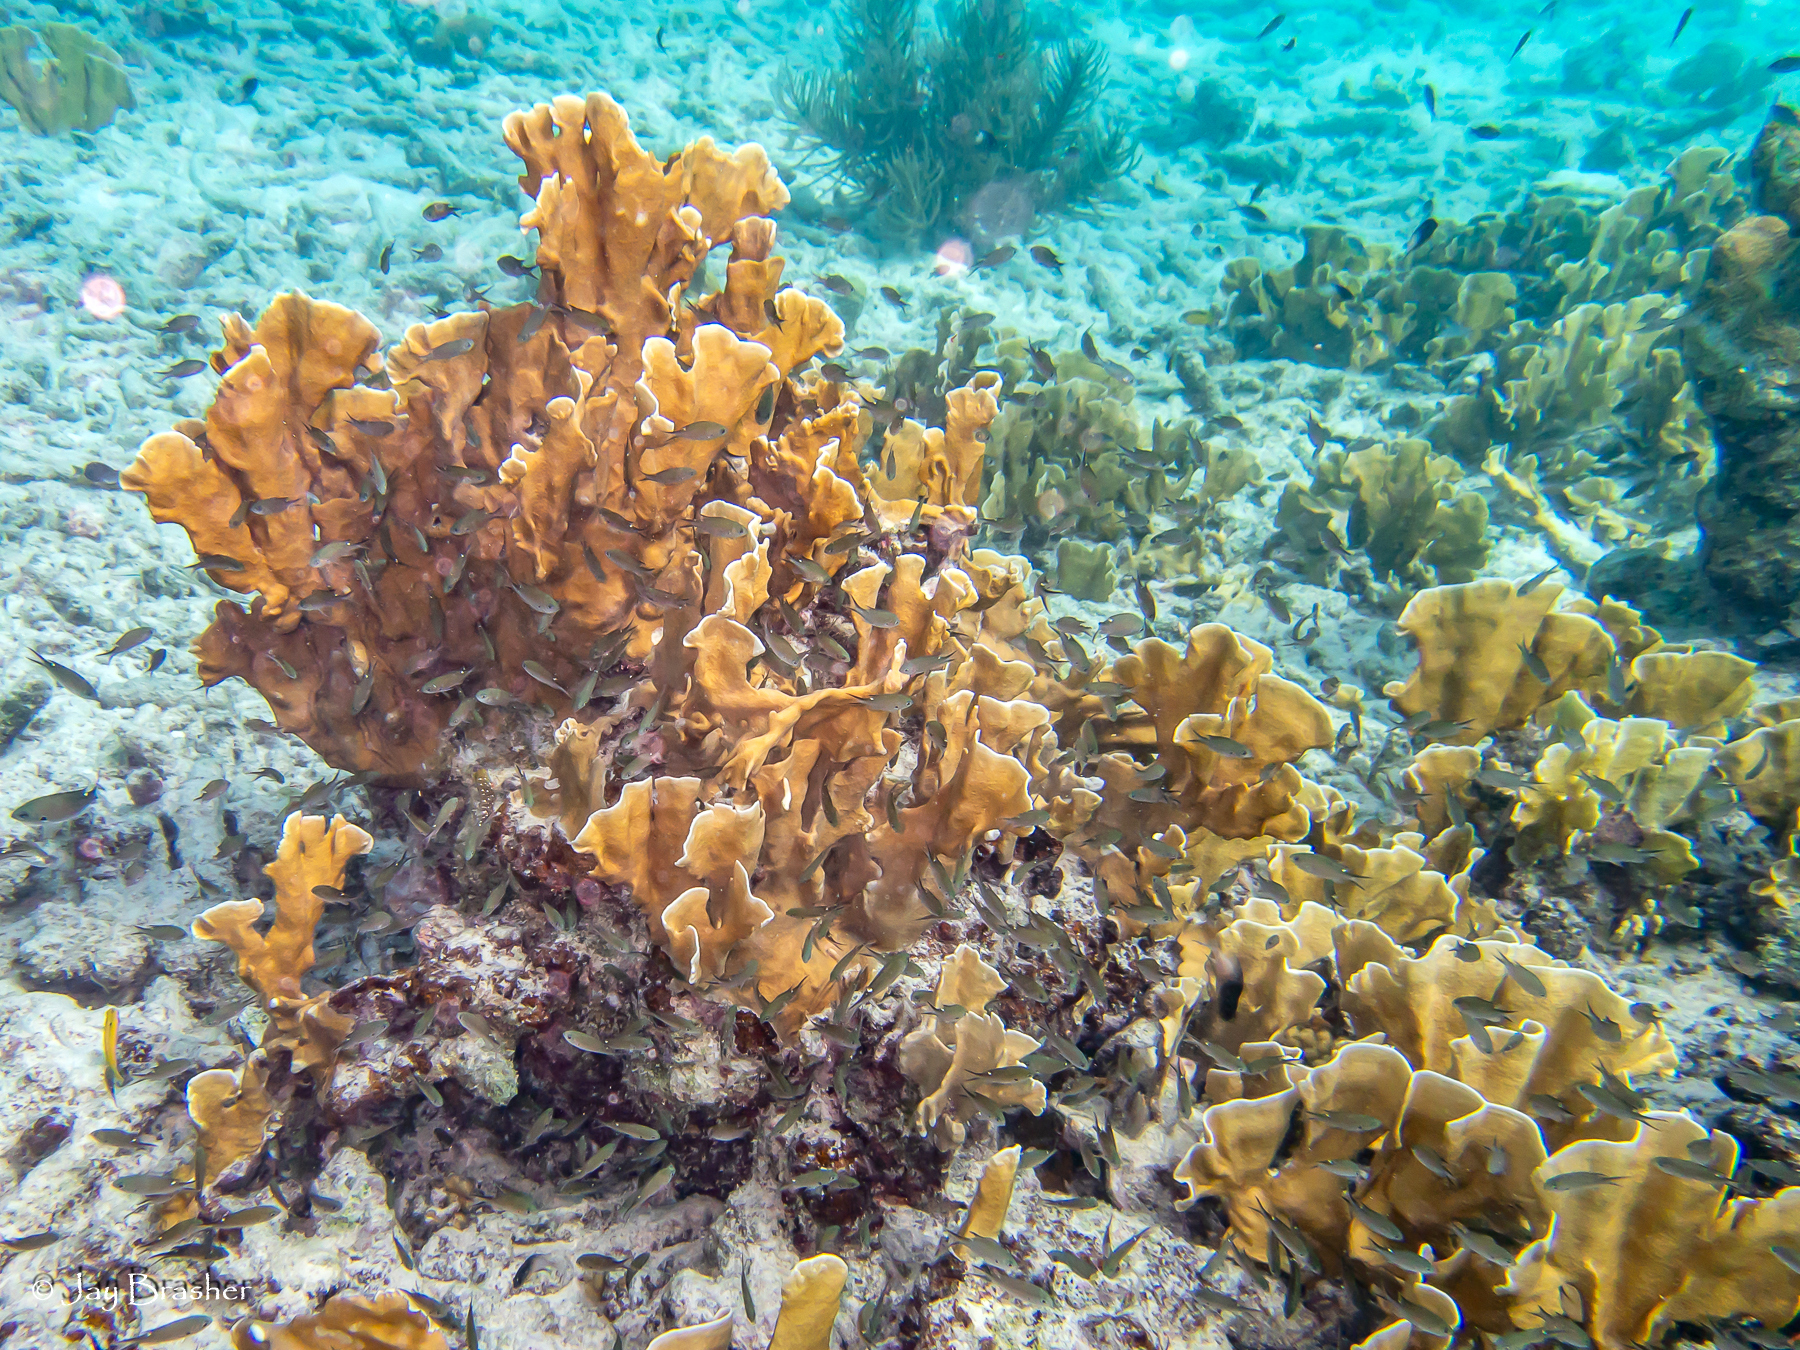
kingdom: Animalia
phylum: Cnidaria
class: Hydrozoa
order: Anthoathecata
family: Milleporidae
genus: Millepora
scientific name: Millepora complanata
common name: Bladed fire coral
